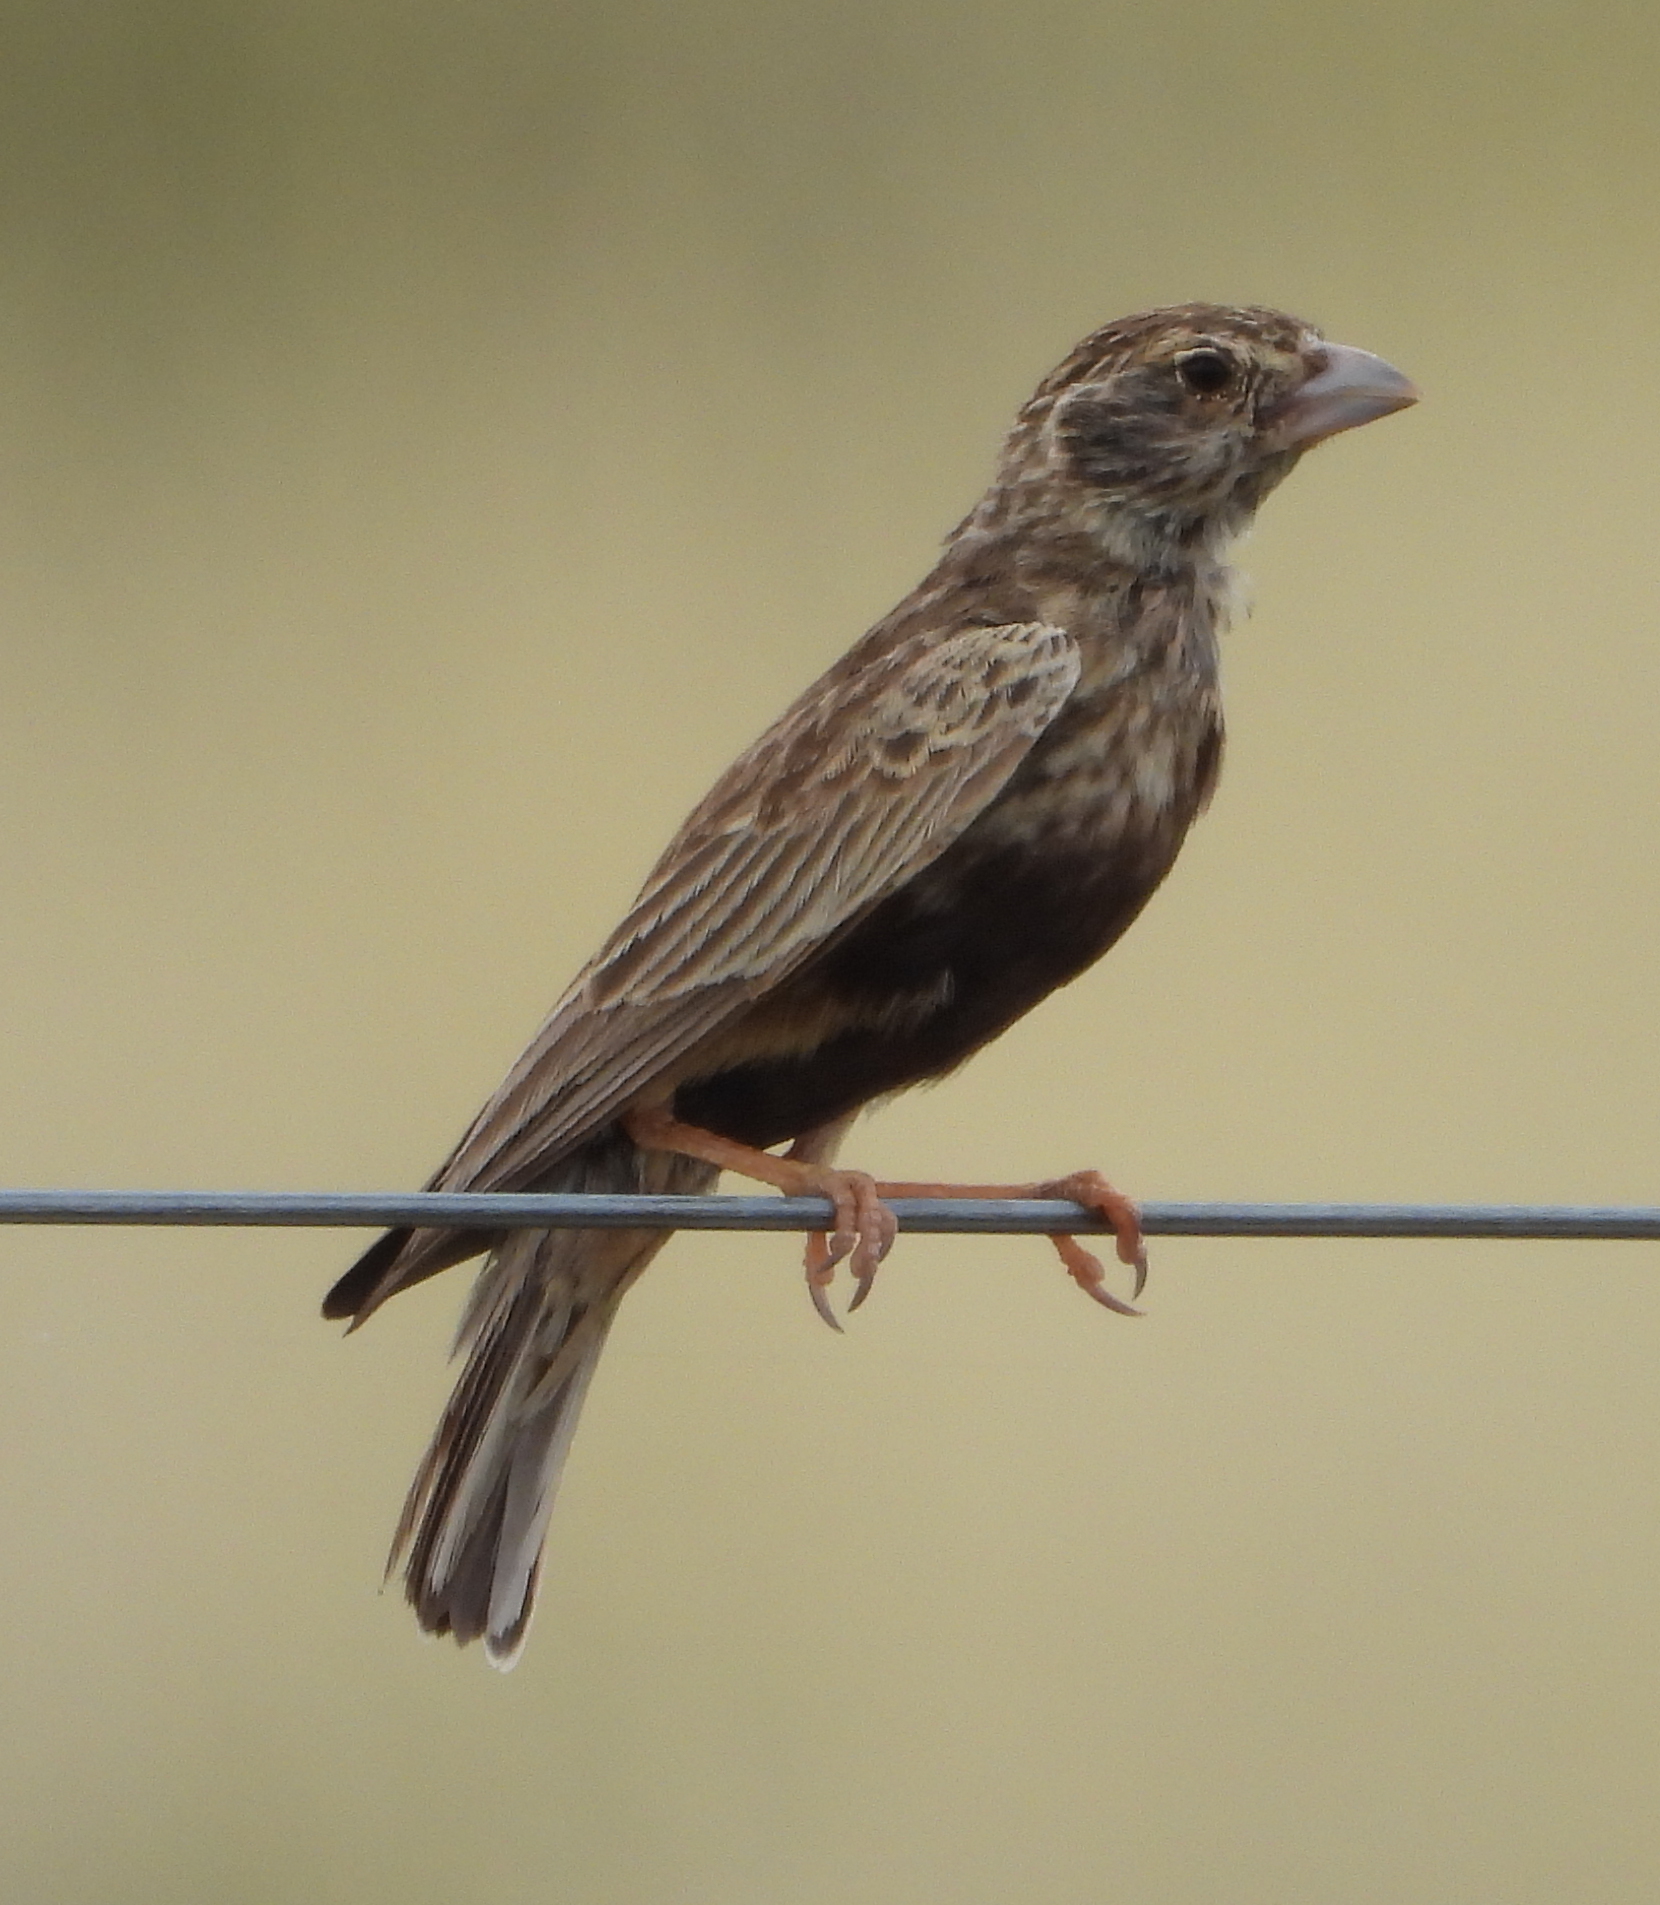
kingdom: Animalia
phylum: Chordata
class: Aves
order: Passeriformes
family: Alaudidae
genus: Eremopterix
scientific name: Eremopterix verticalis
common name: Grey-backed sparrow-lark
